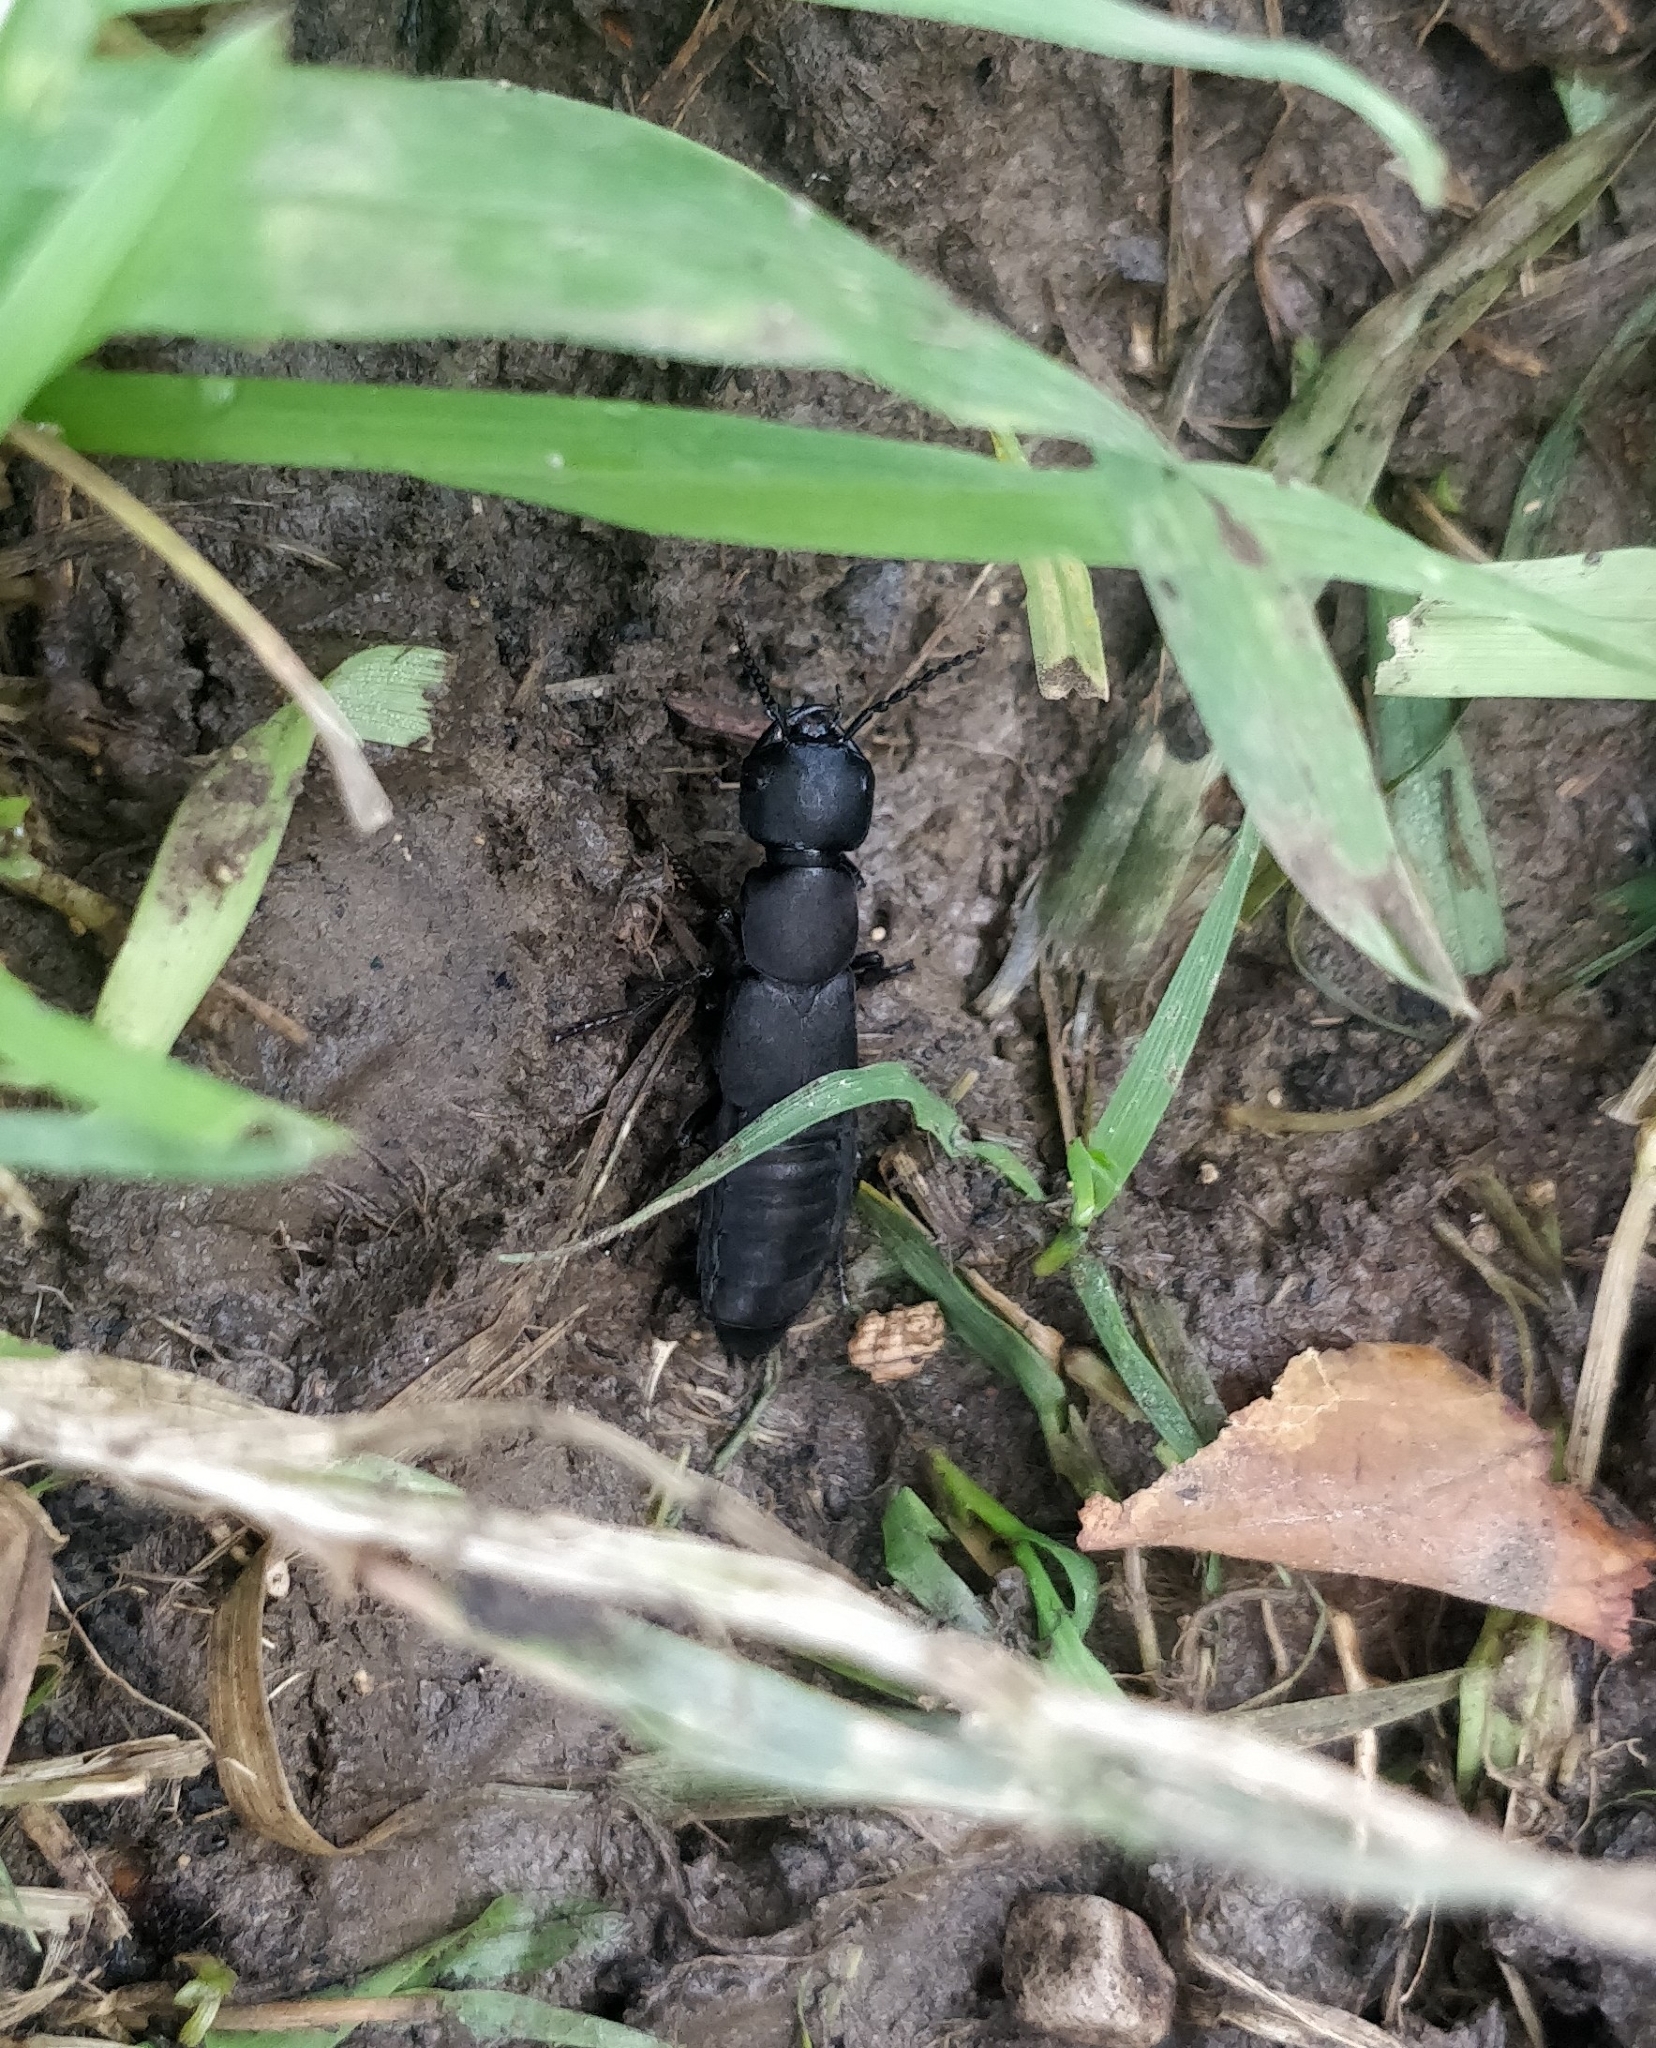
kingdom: Animalia
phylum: Arthropoda
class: Insecta
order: Coleoptera
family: Staphylinidae
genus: Ocypus
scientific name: Ocypus olens
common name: Devil's coach-horse
